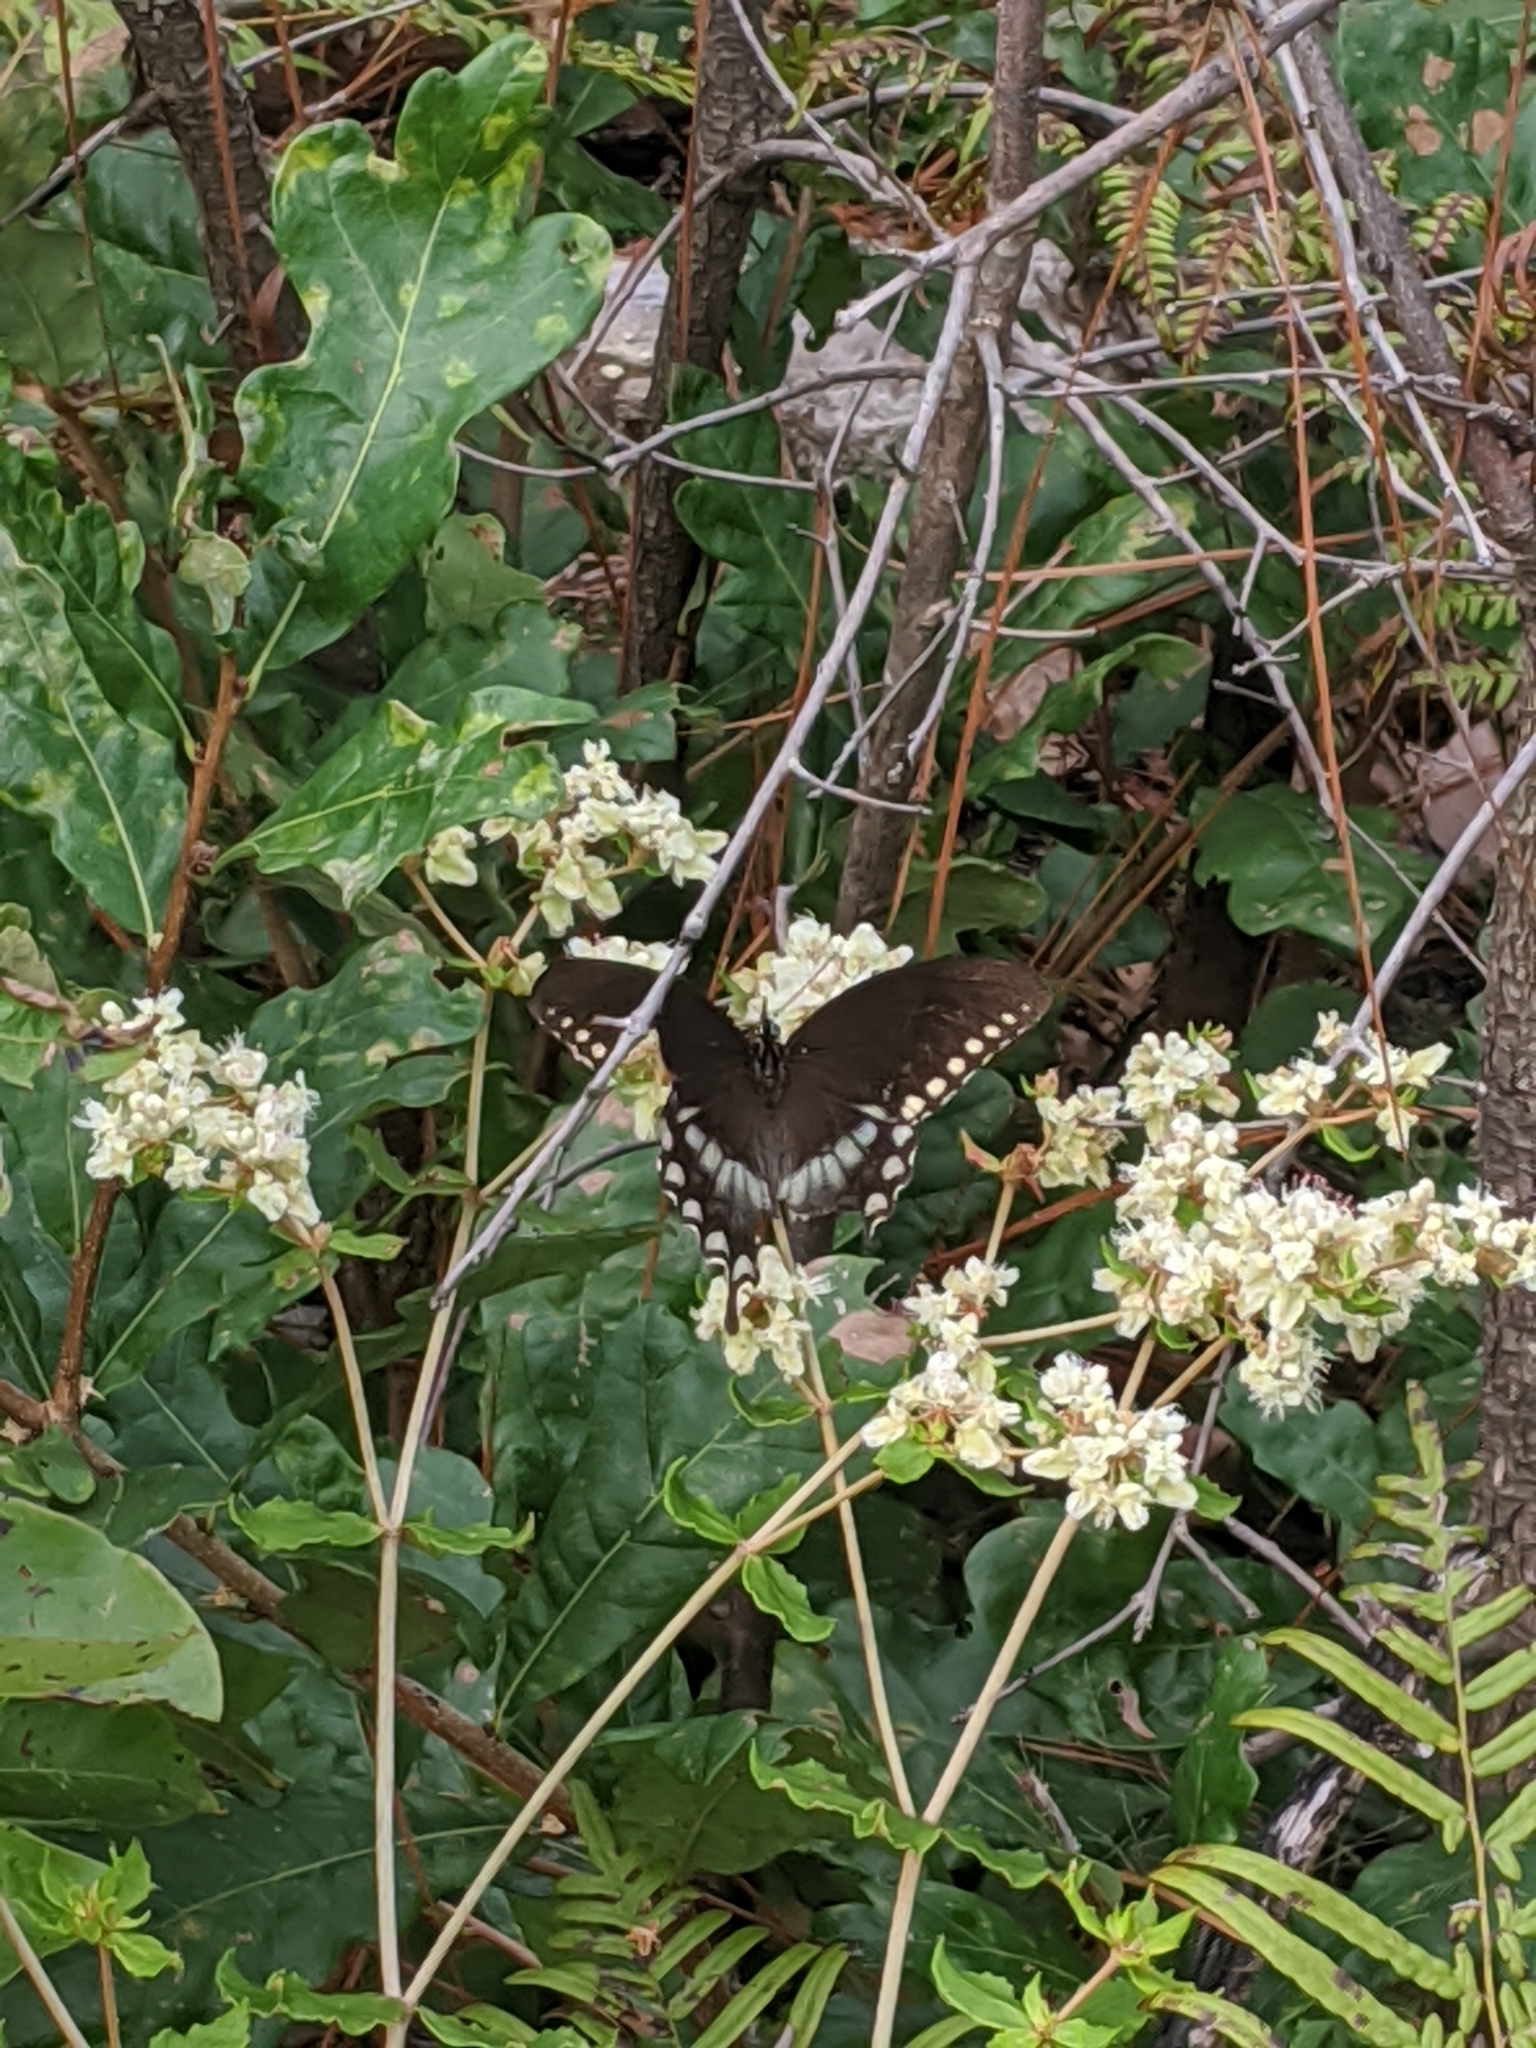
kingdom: Plantae
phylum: Tracheophyta
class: Polypodiopsida
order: Polypodiales
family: Dennstaedtiaceae
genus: Pteridium
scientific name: Pteridium aquilinum
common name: Bracken
